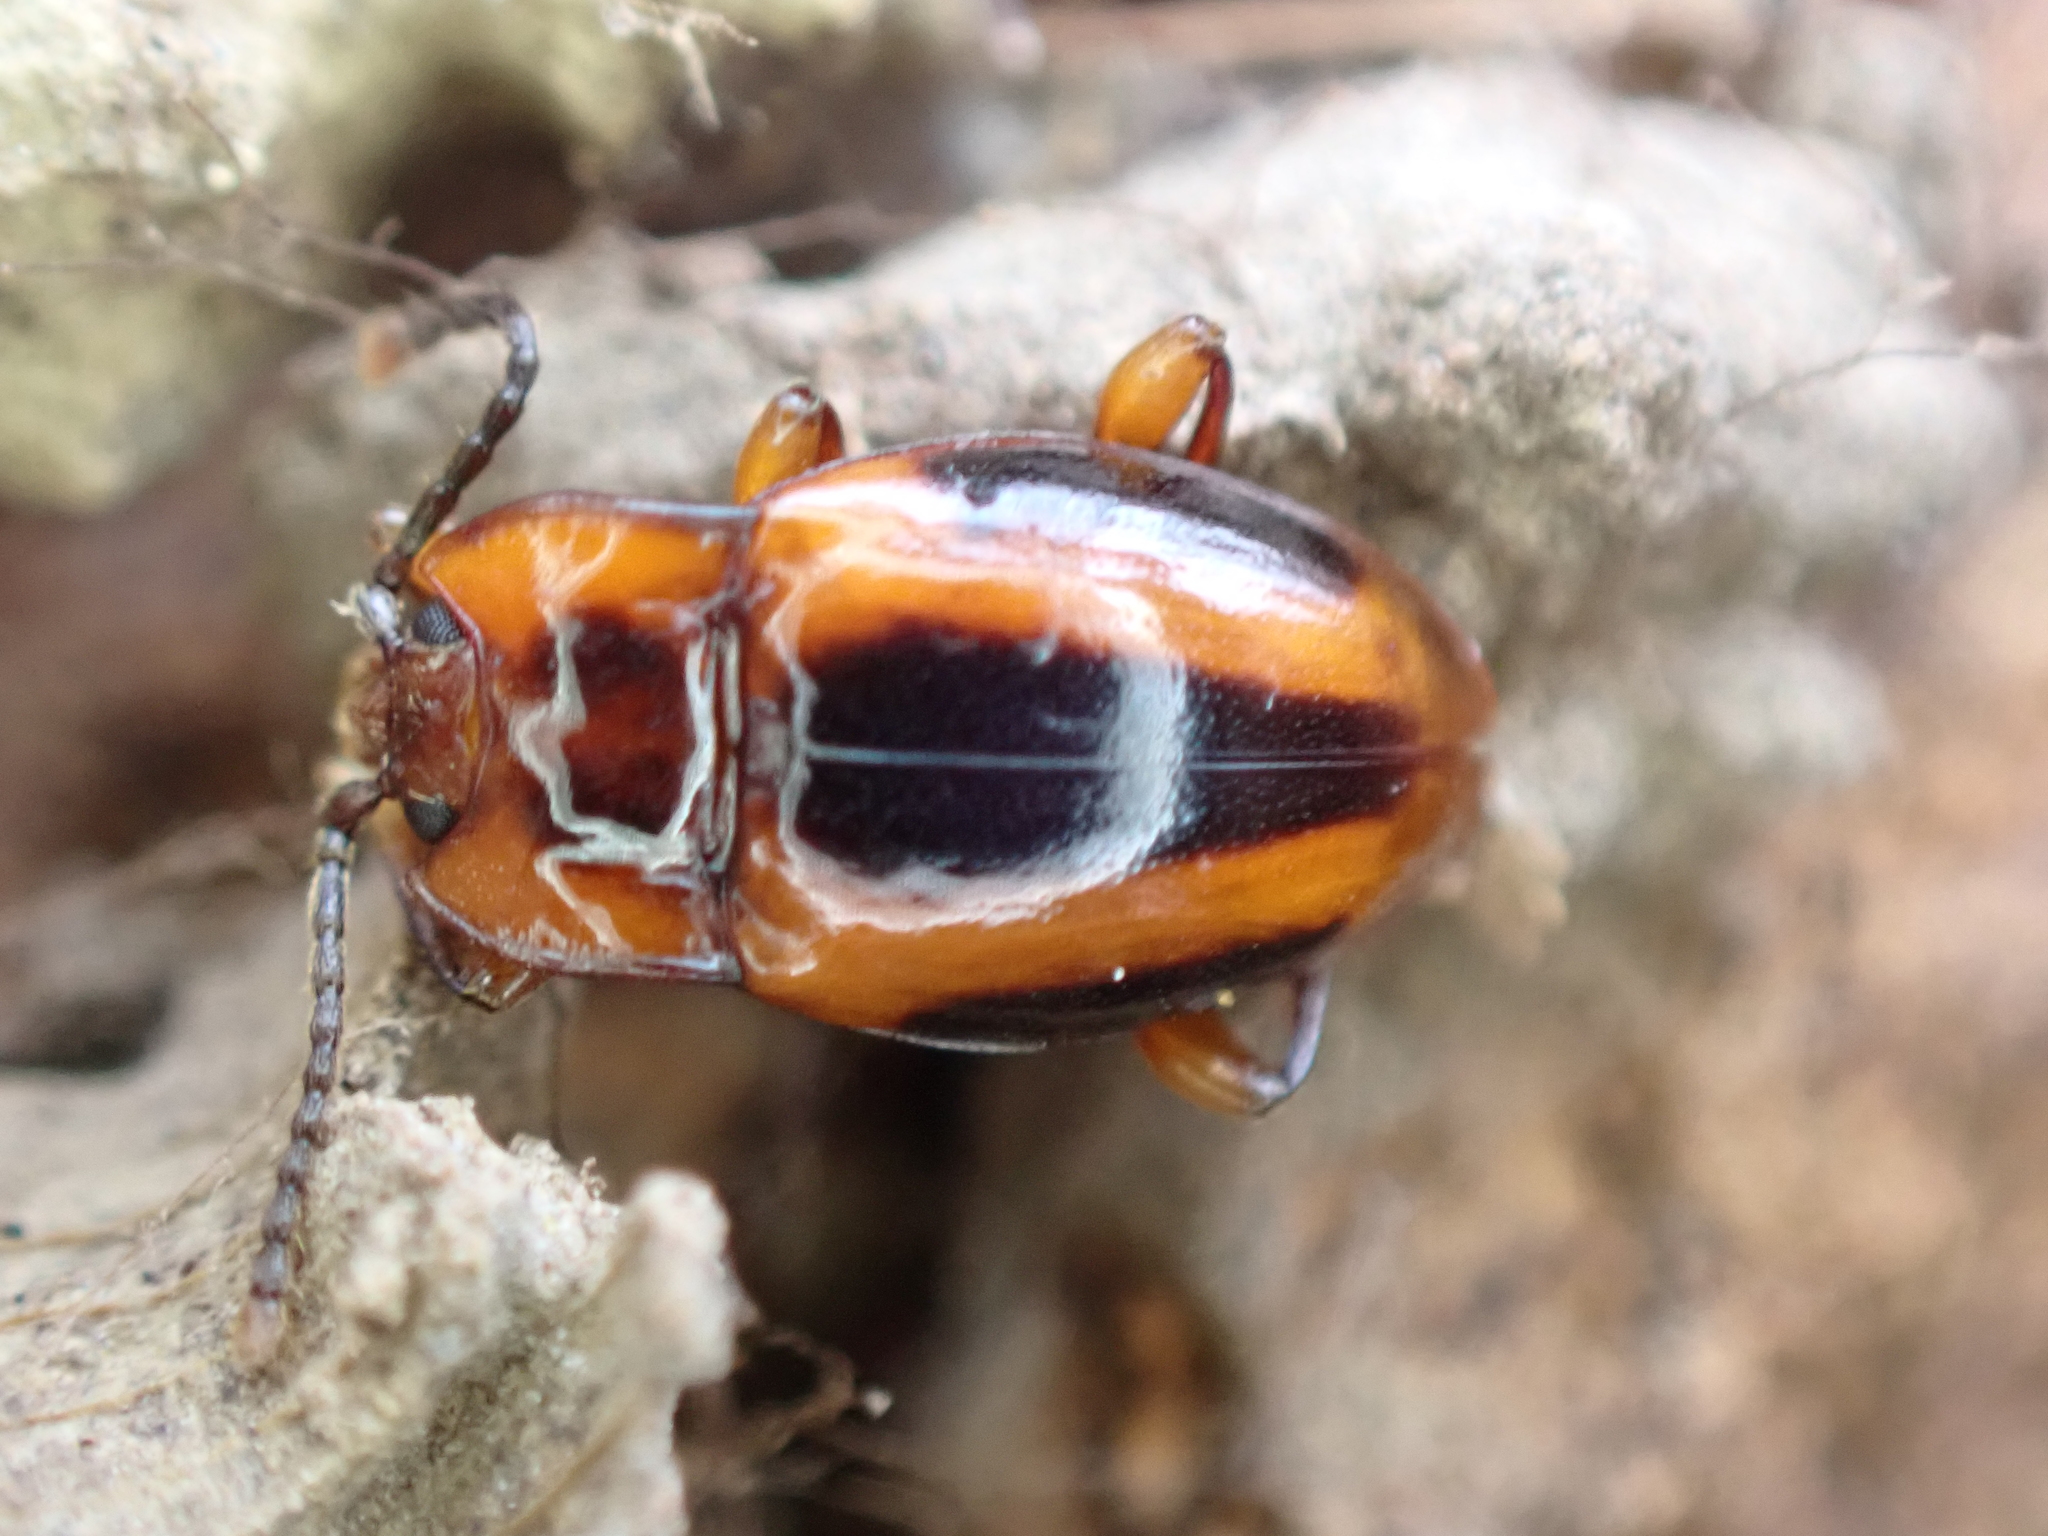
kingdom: Animalia
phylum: Arthropoda
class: Insecta
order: Coleoptera
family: Endomychidae
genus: Aphorista
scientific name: Aphorista vittata
